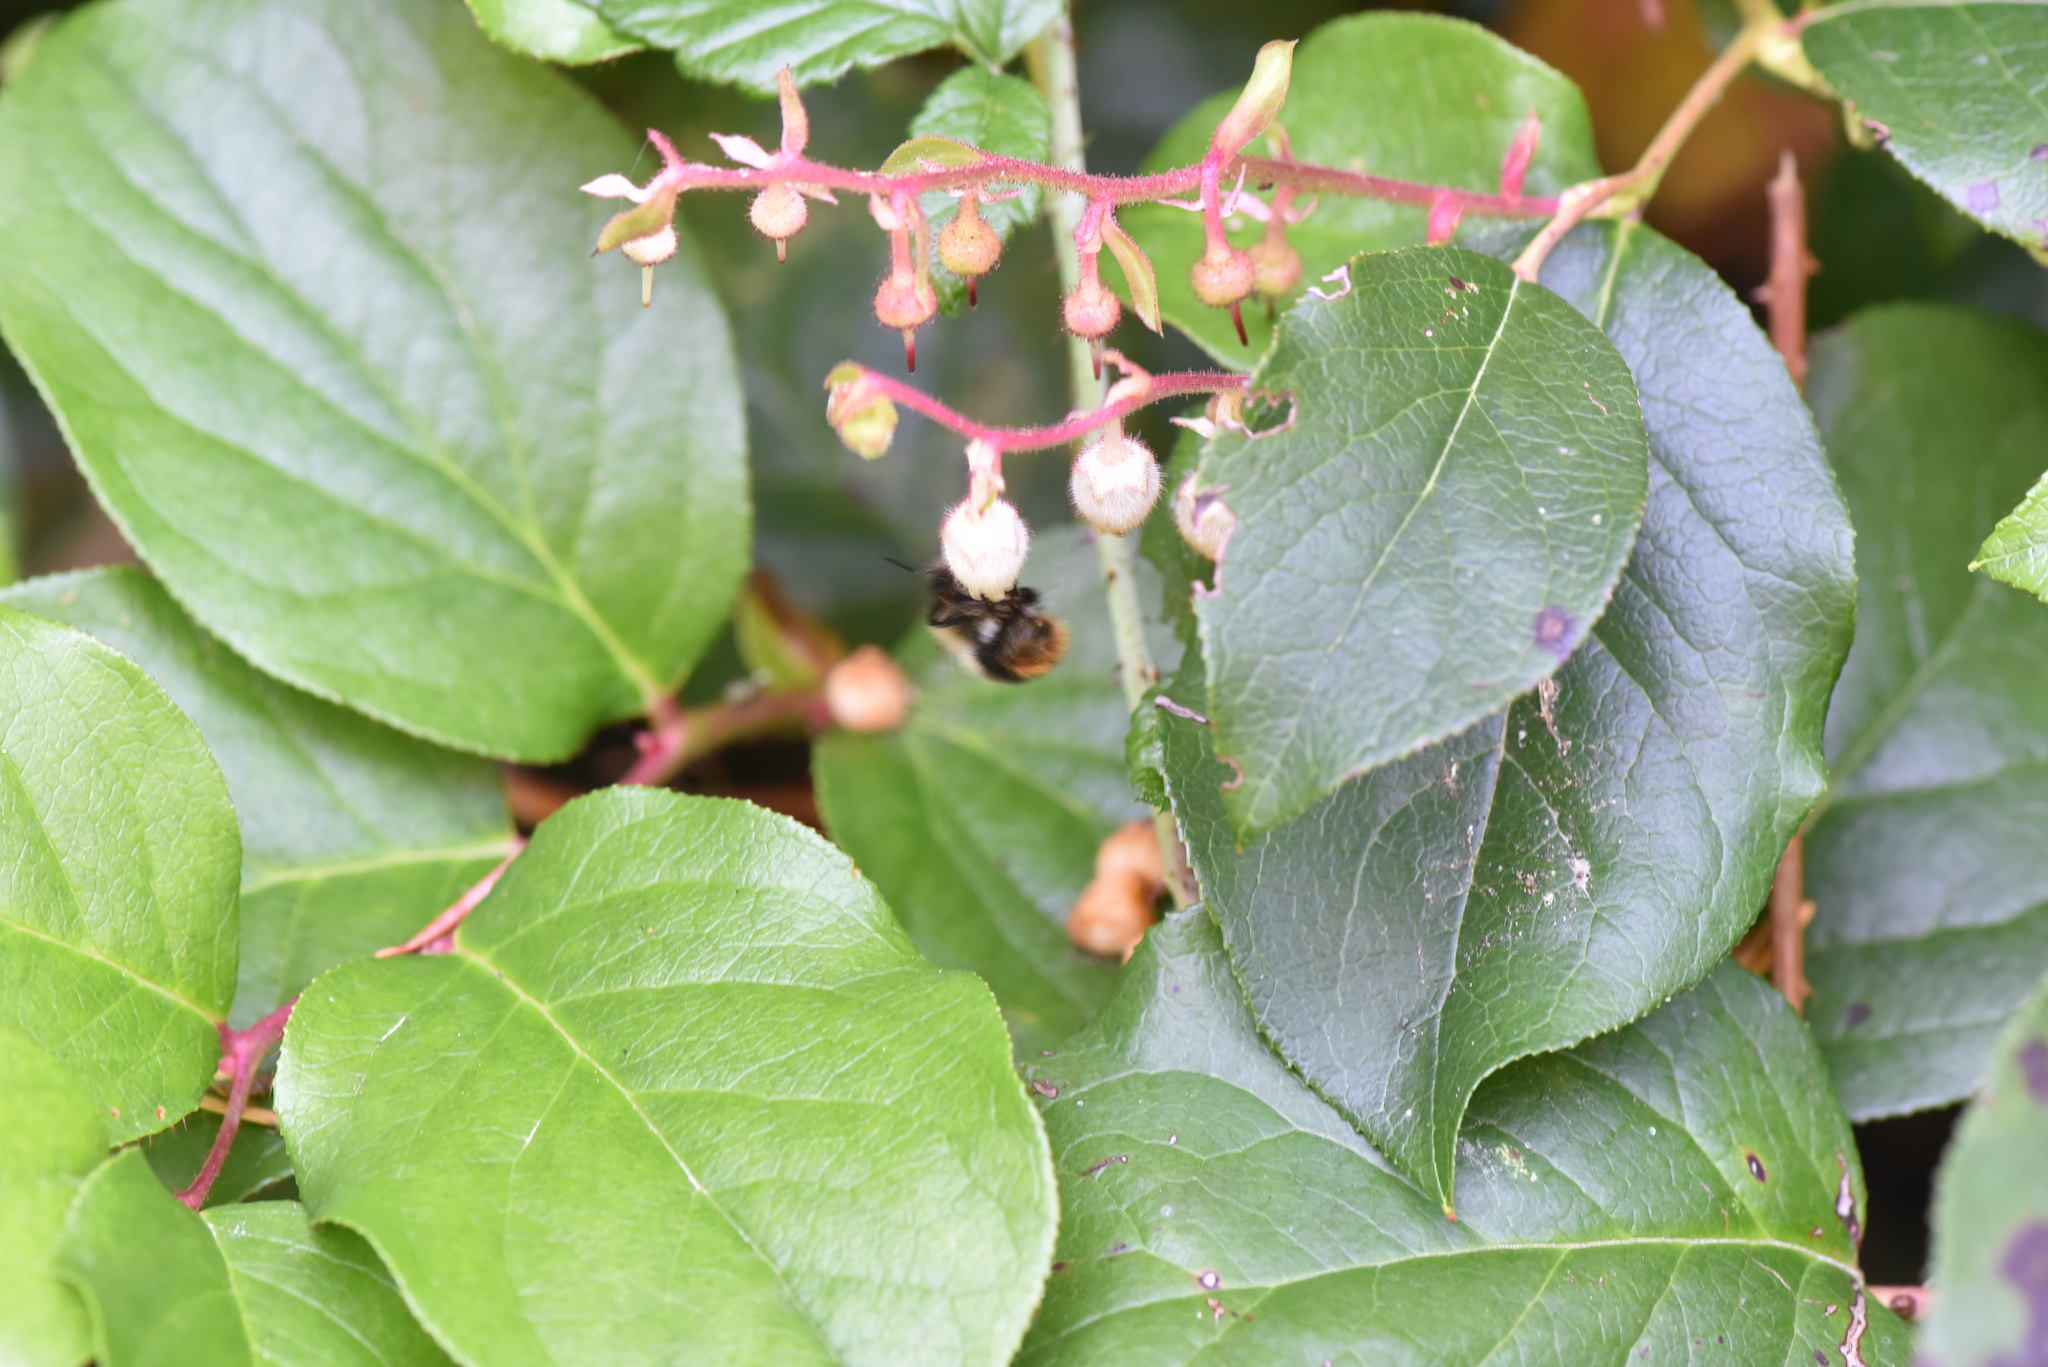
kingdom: Animalia
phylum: Arthropoda
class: Insecta
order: Hymenoptera
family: Apidae
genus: Bombus
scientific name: Bombus mixtus
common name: Fuzzy-horned bumble bee
